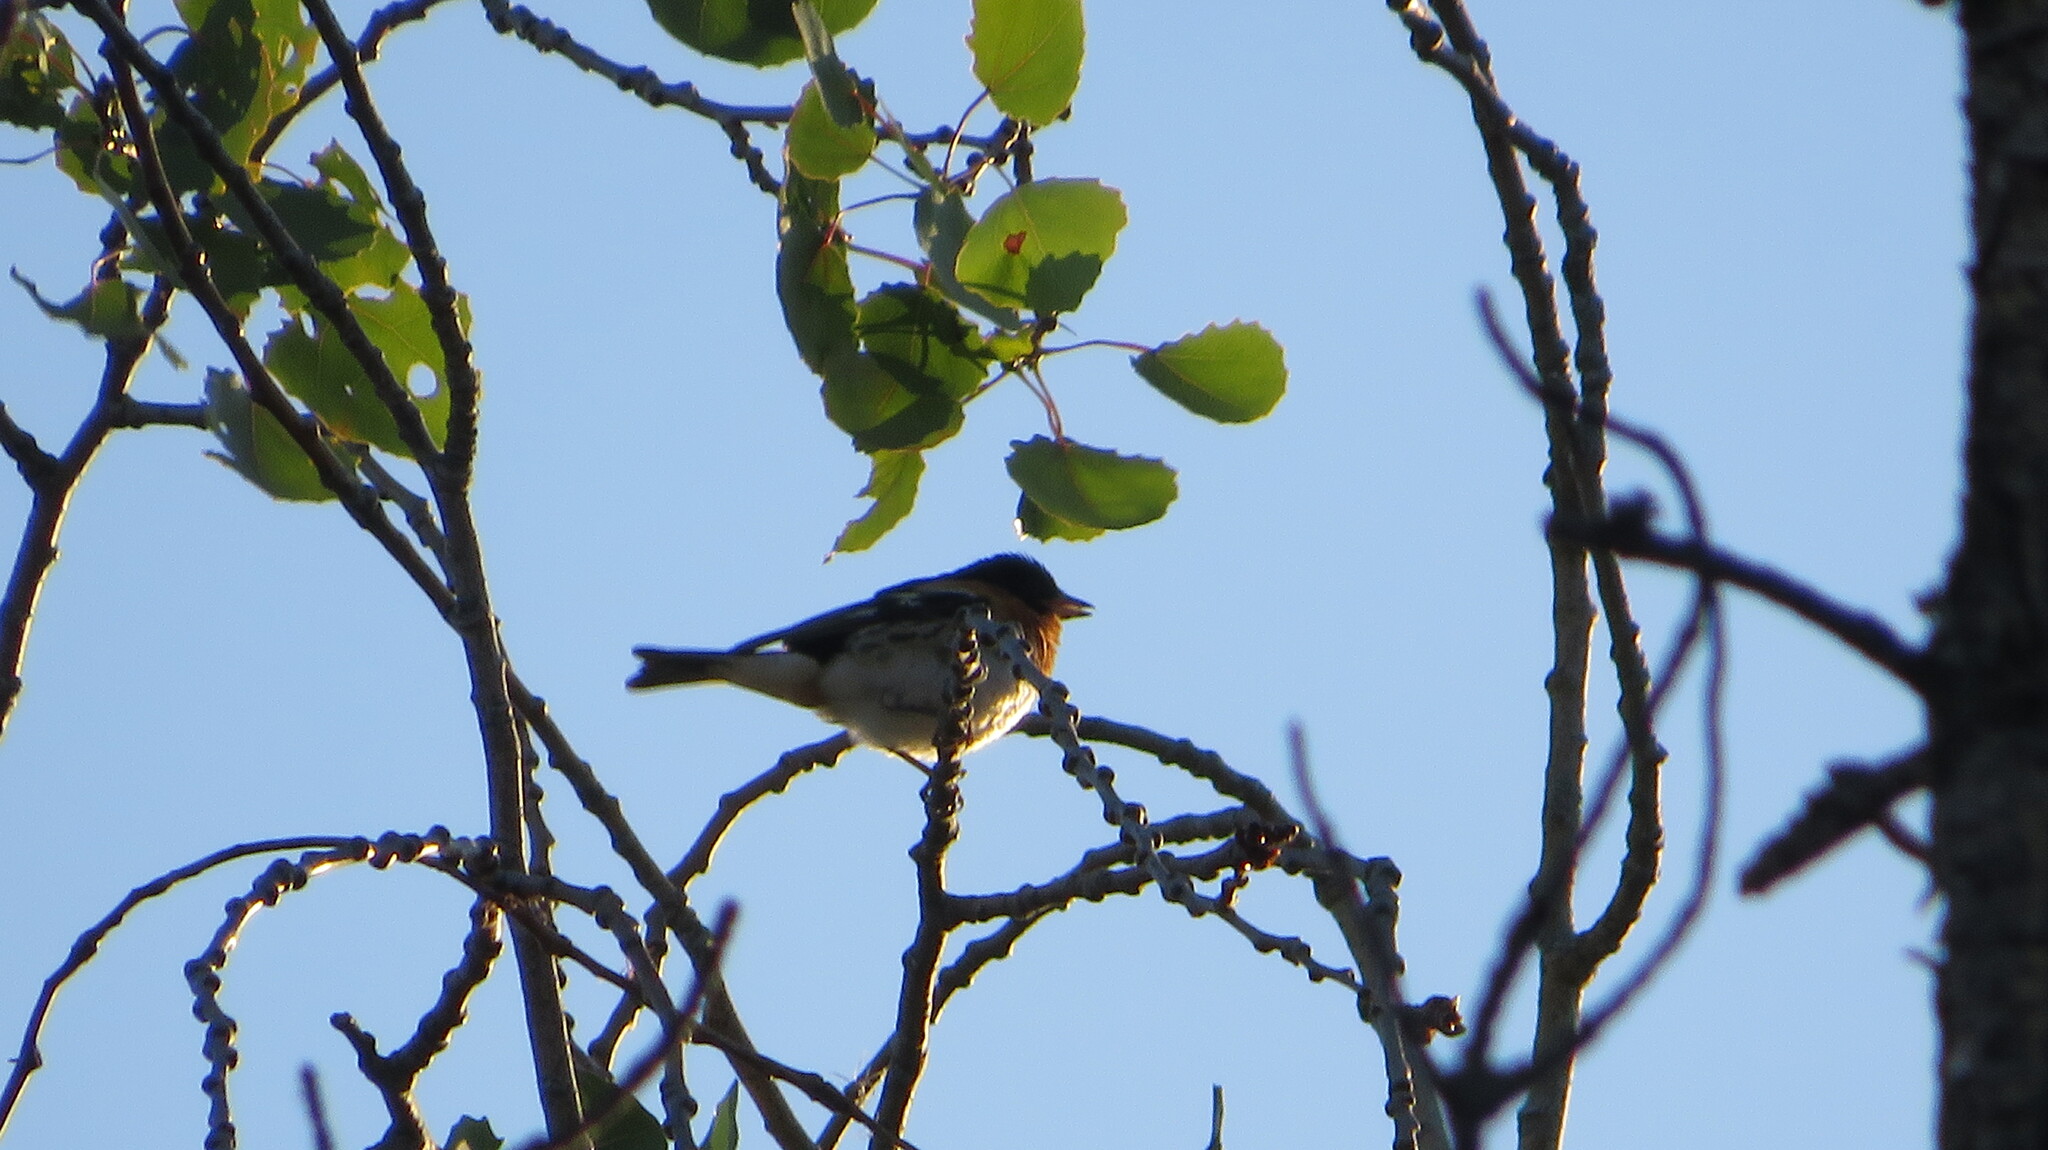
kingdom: Animalia
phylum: Chordata
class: Aves
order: Passeriformes
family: Fringillidae
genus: Fringilla
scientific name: Fringilla montifringilla
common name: Brambling
